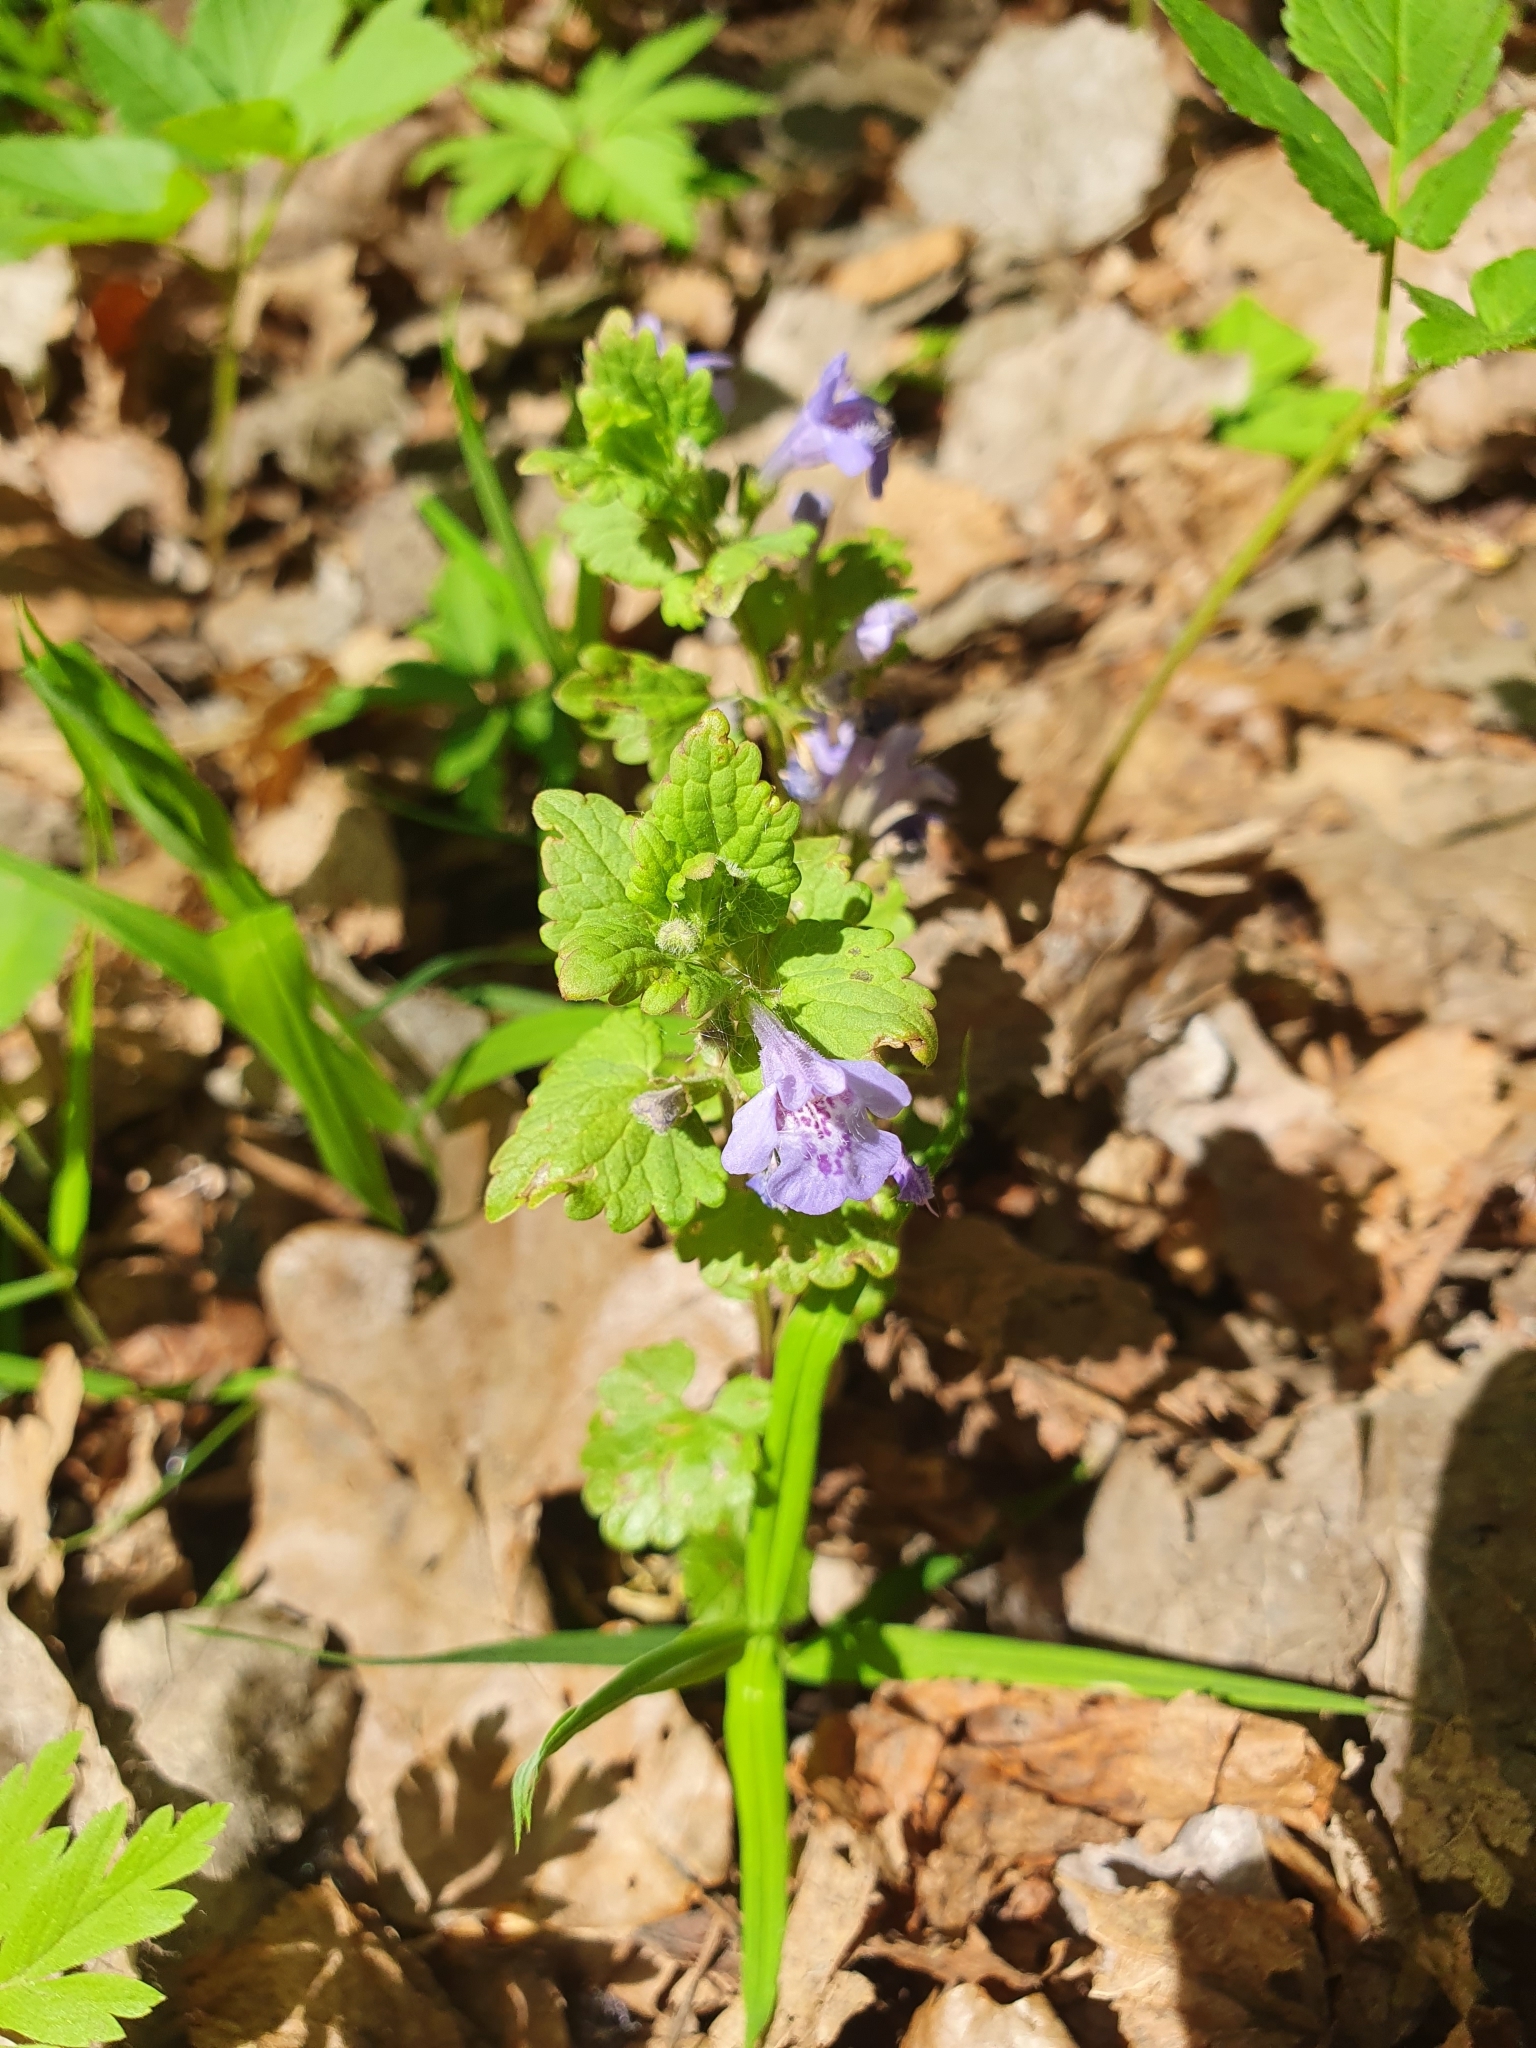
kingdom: Plantae
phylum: Tracheophyta
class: Magnoliopsida
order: Lamiales
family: Lamiaceae
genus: Glechoma
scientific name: Glechoma hederacea
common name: Ground ivy
